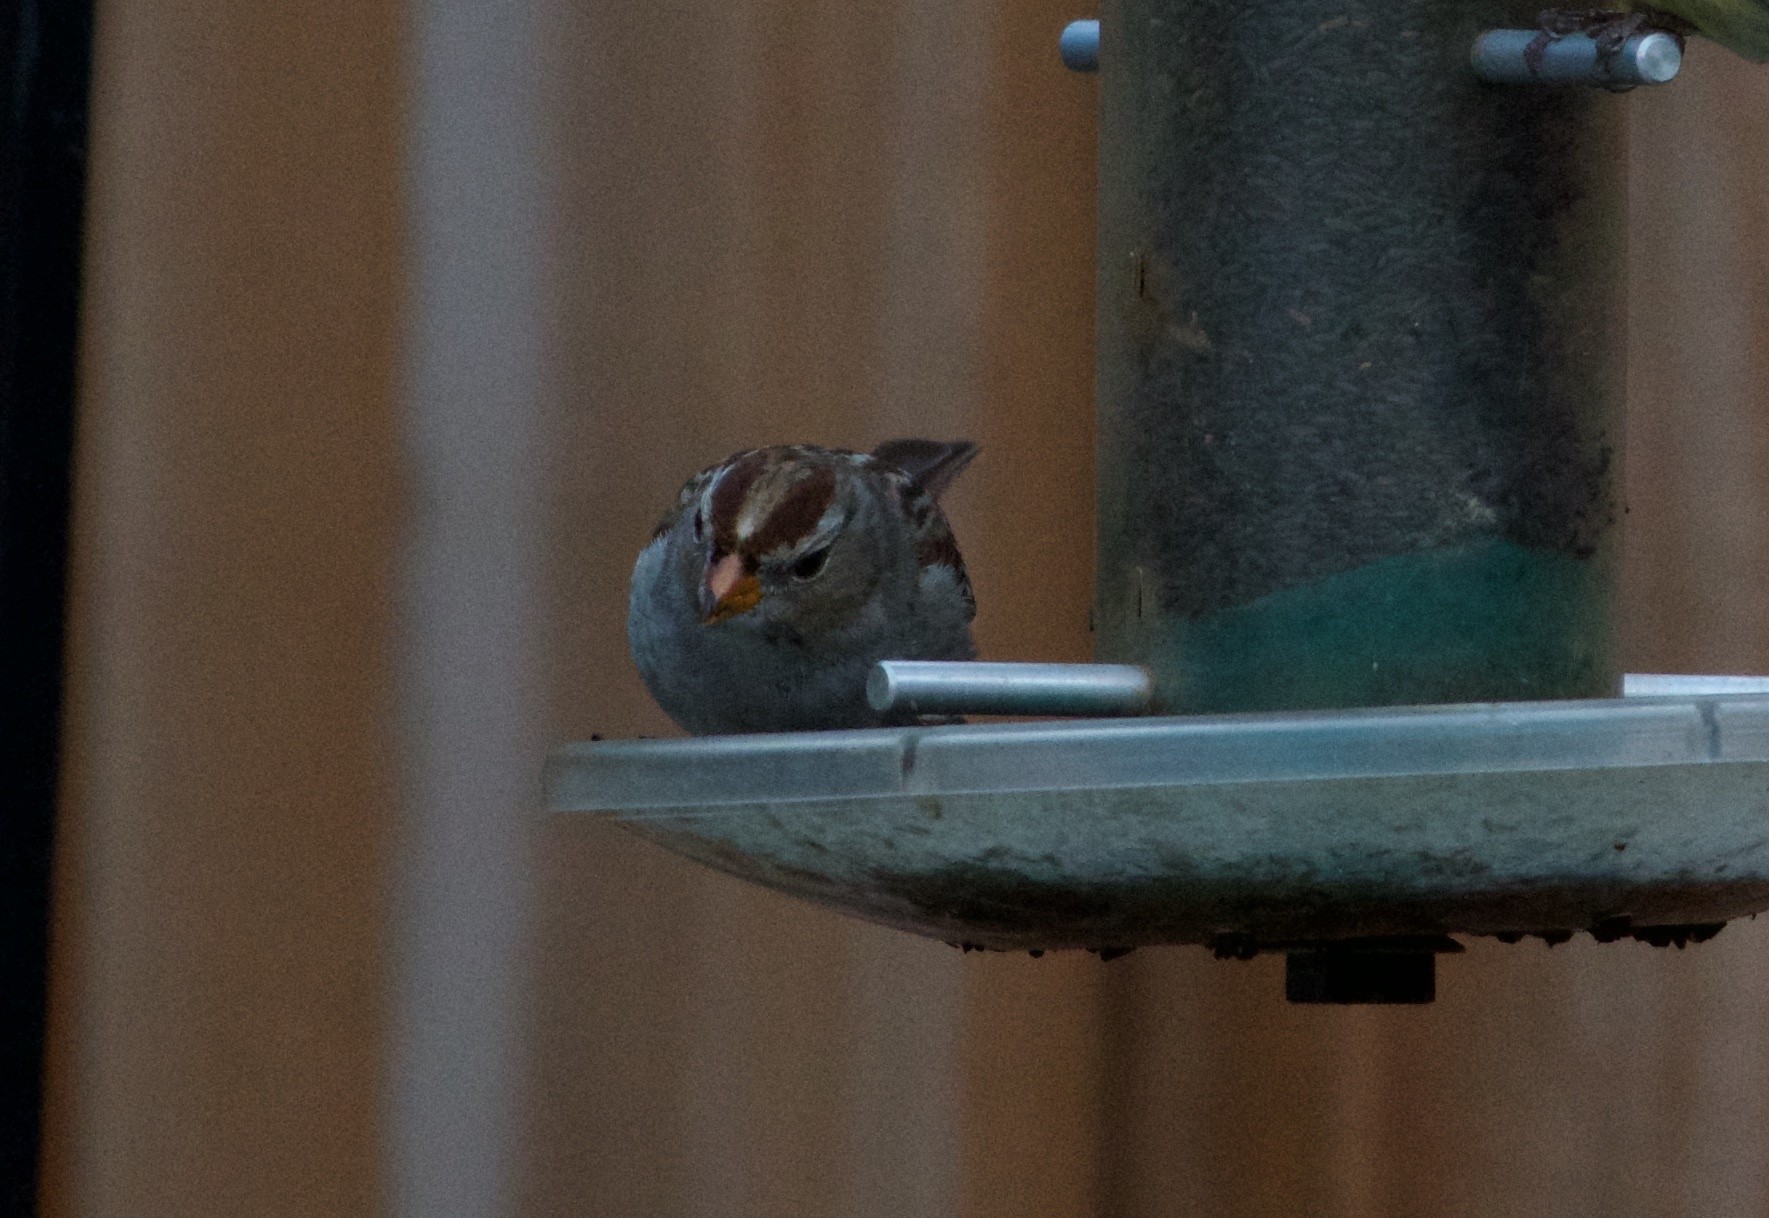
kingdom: Animalia
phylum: Chordata
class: Aves
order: Passeriformes
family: Passerellidae
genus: Zonotrichia
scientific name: Zonotrichia leucophrys
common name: White-crowned sparrow
